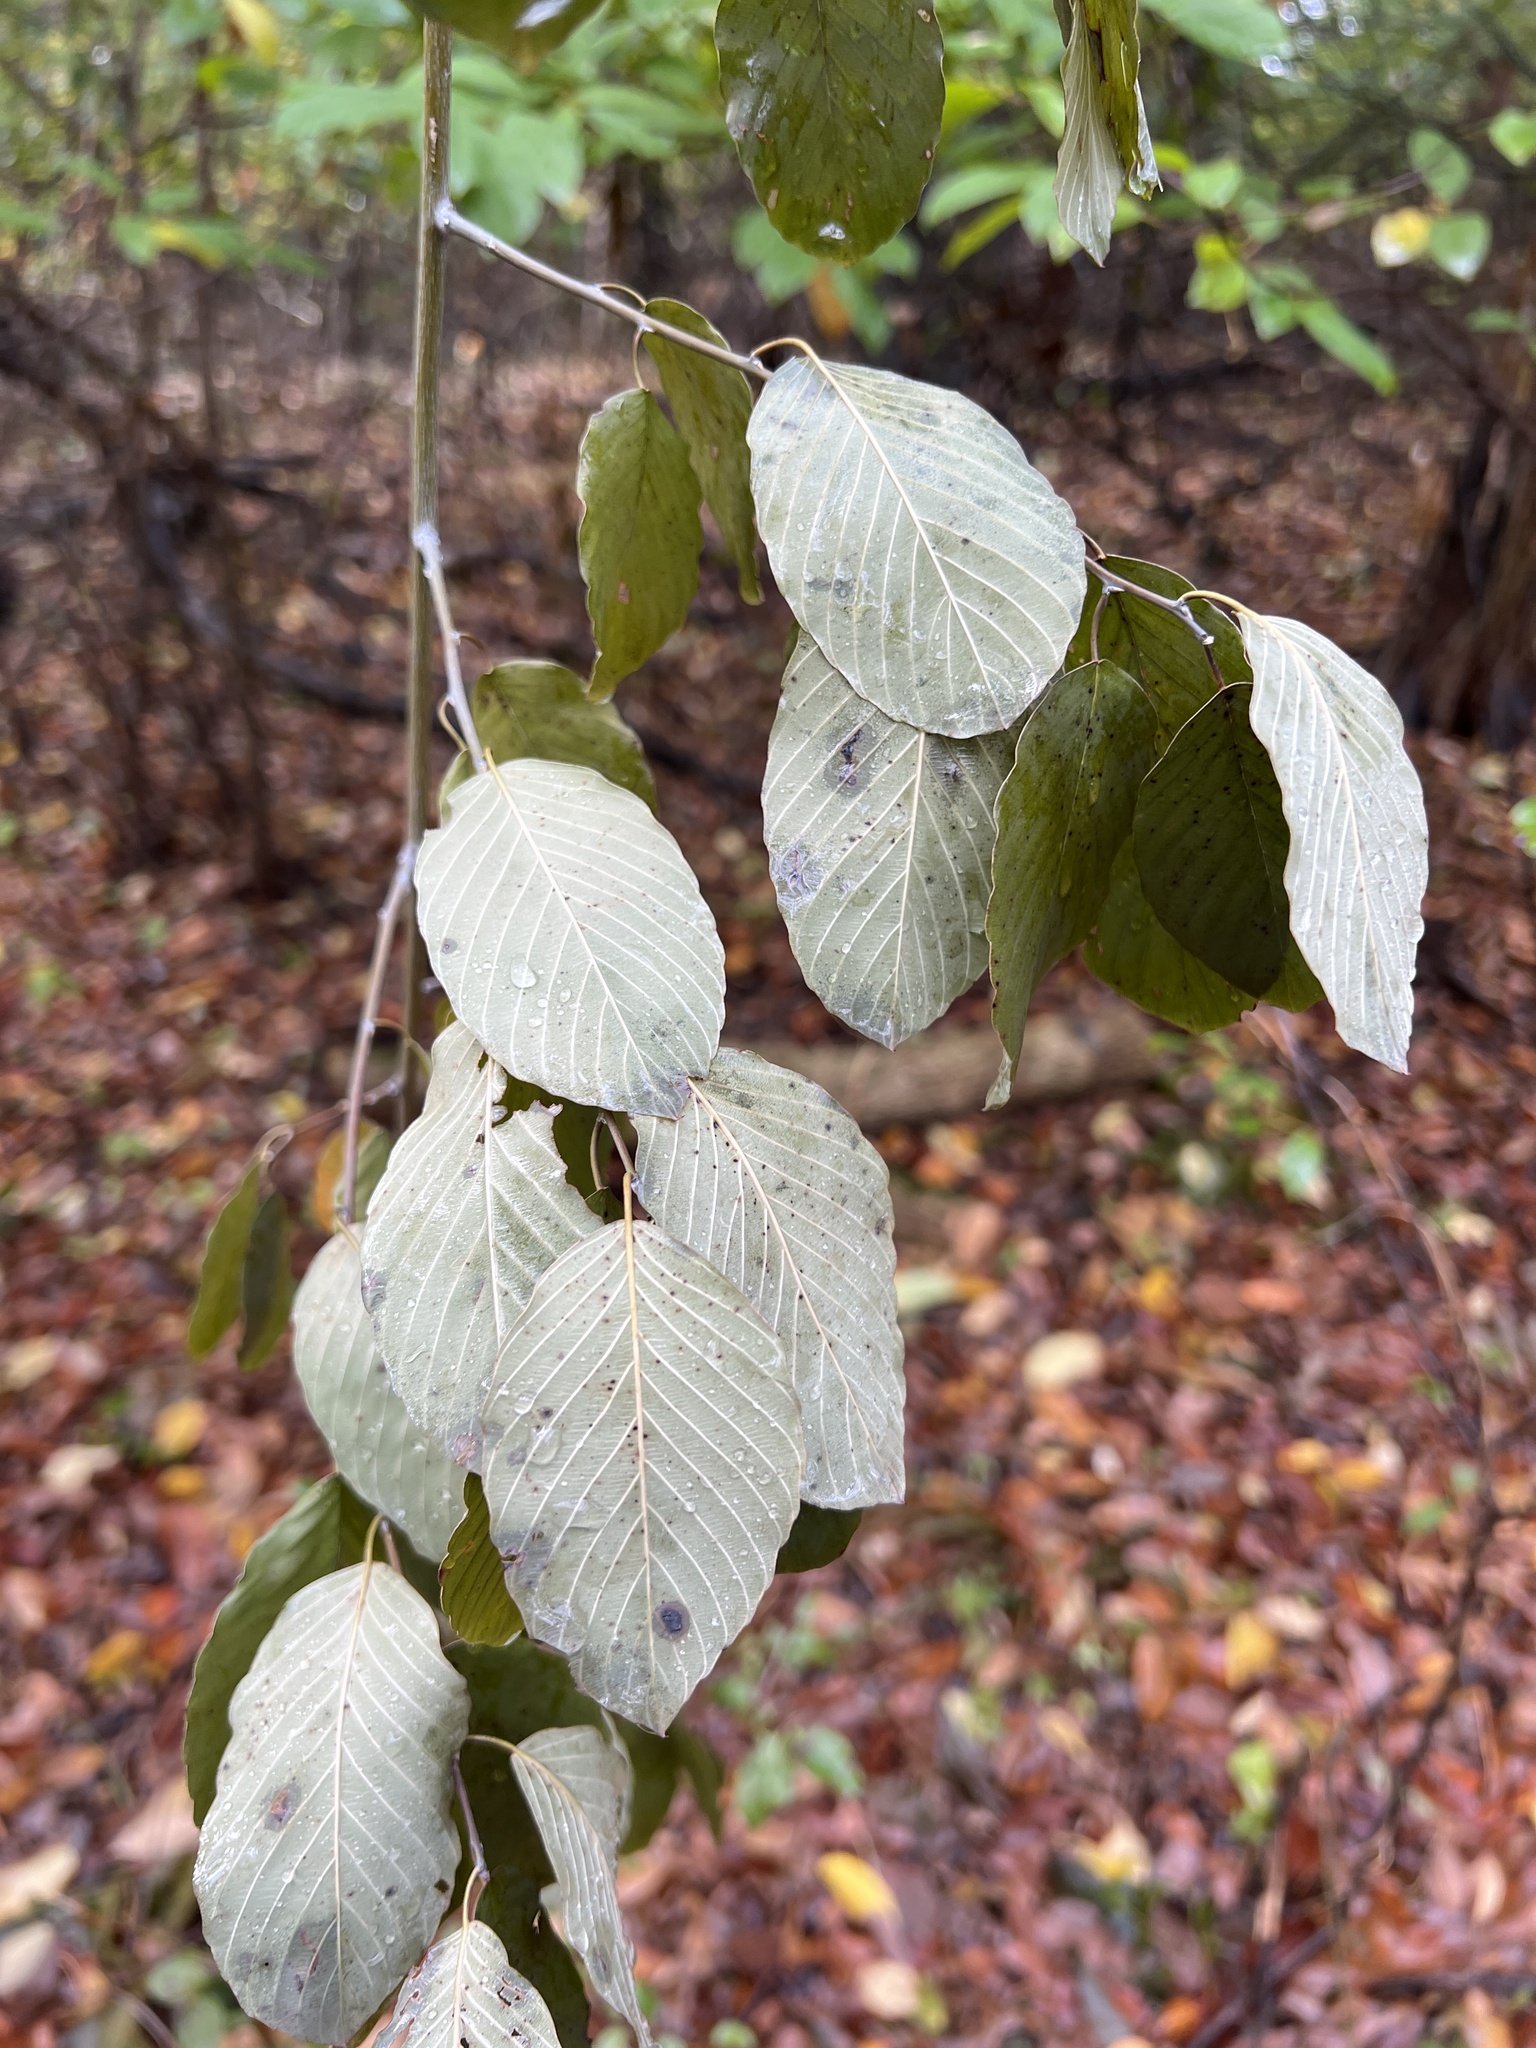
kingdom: Plantae
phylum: Tracheophyta
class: Magnoliopsida
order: Rosales
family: Rhamnaceae
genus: Berchemia
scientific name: Berchemia scandens
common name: Supplejack
